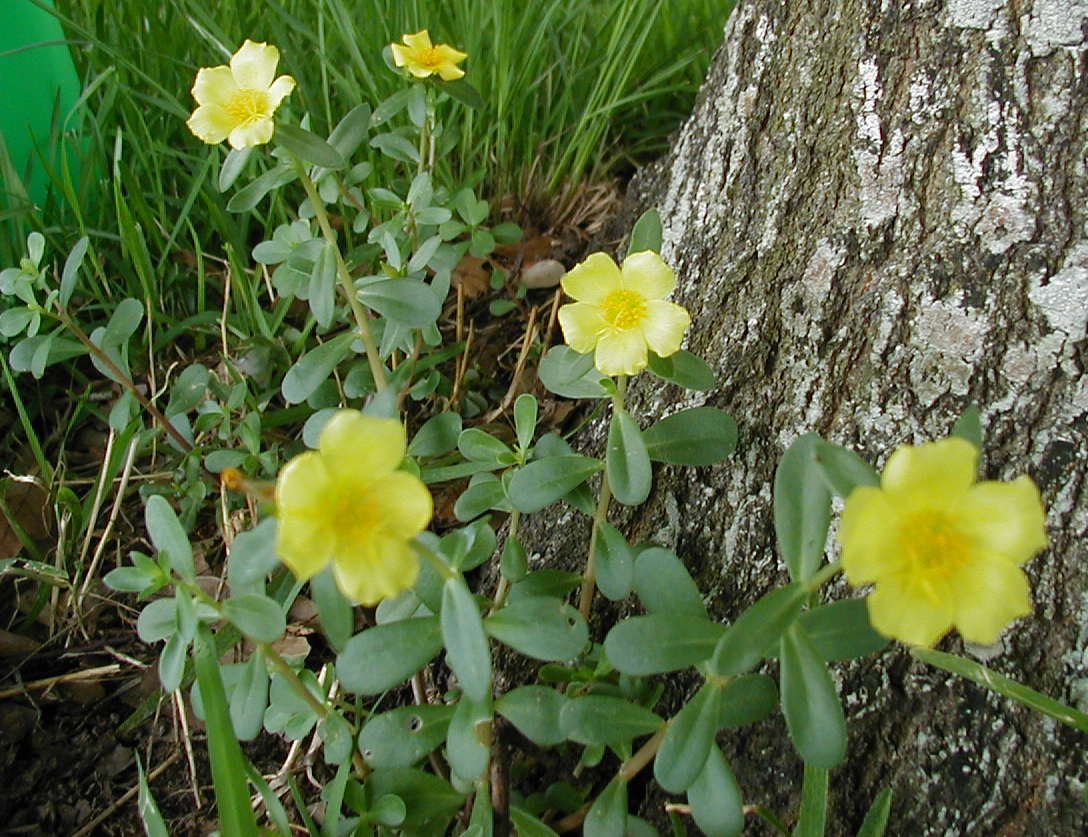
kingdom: Plantae
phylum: Tracheophyta
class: Magnoliopsida
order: Caryophyllales
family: Portulacaceae
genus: Portulaca
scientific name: Portulaca umbraticola
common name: Wingpod purslane
